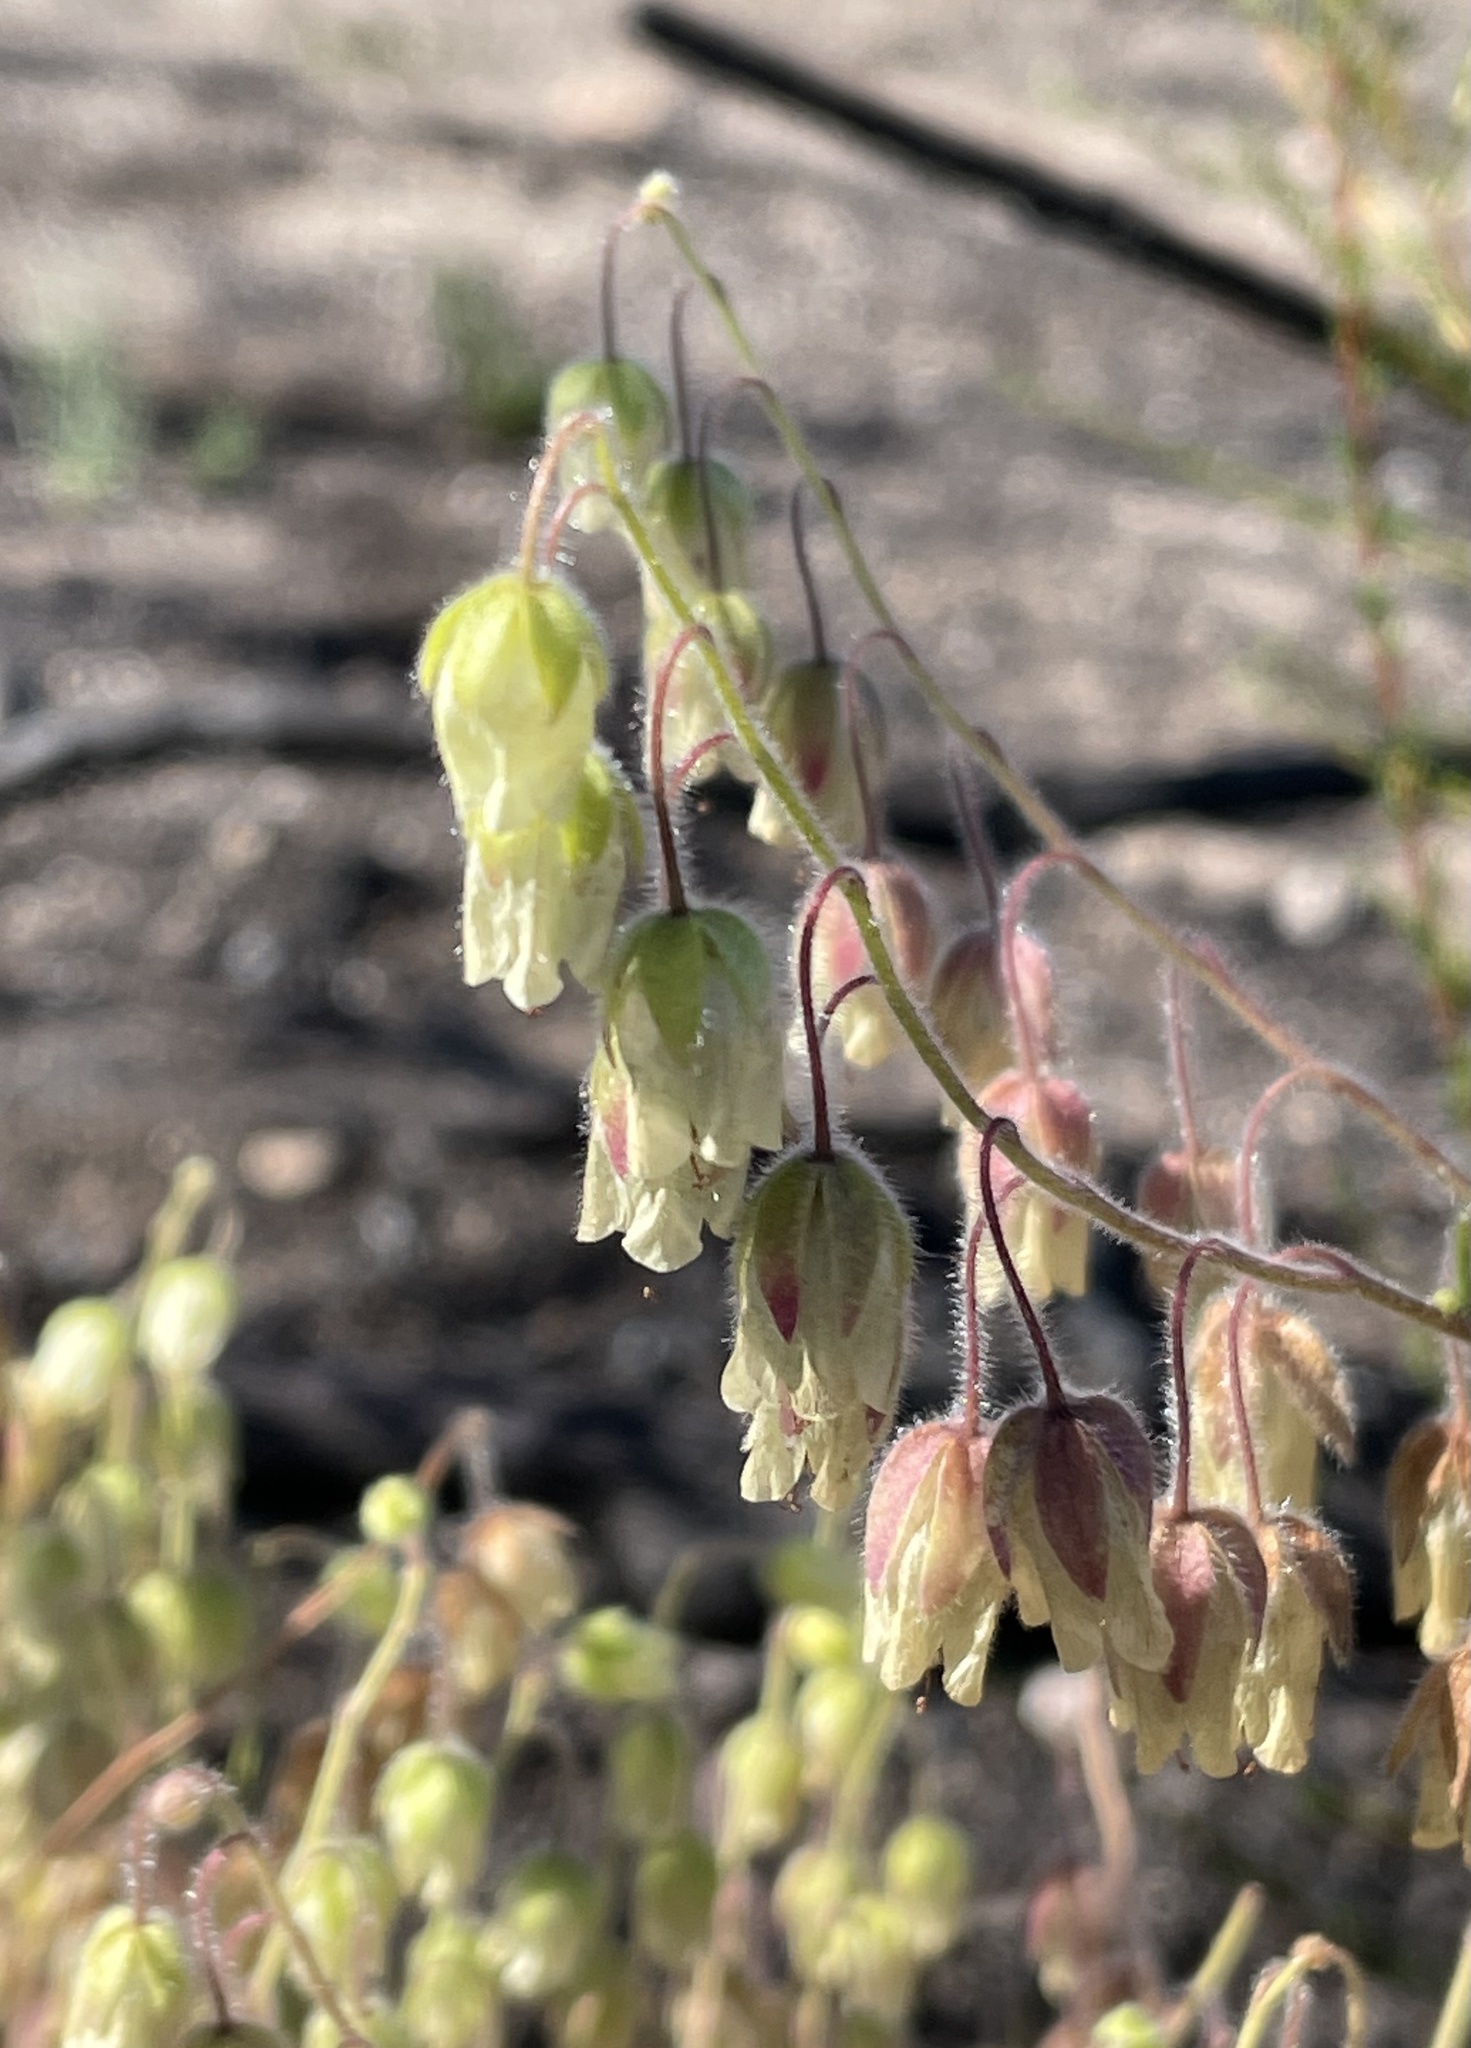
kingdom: Plantae
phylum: Tracheophyta
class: Magnoliopsida
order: Boraginales
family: Hydrophyllaceae
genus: Emmenanthe
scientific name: Emmenanthe penduliflora
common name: Whispering-bells
